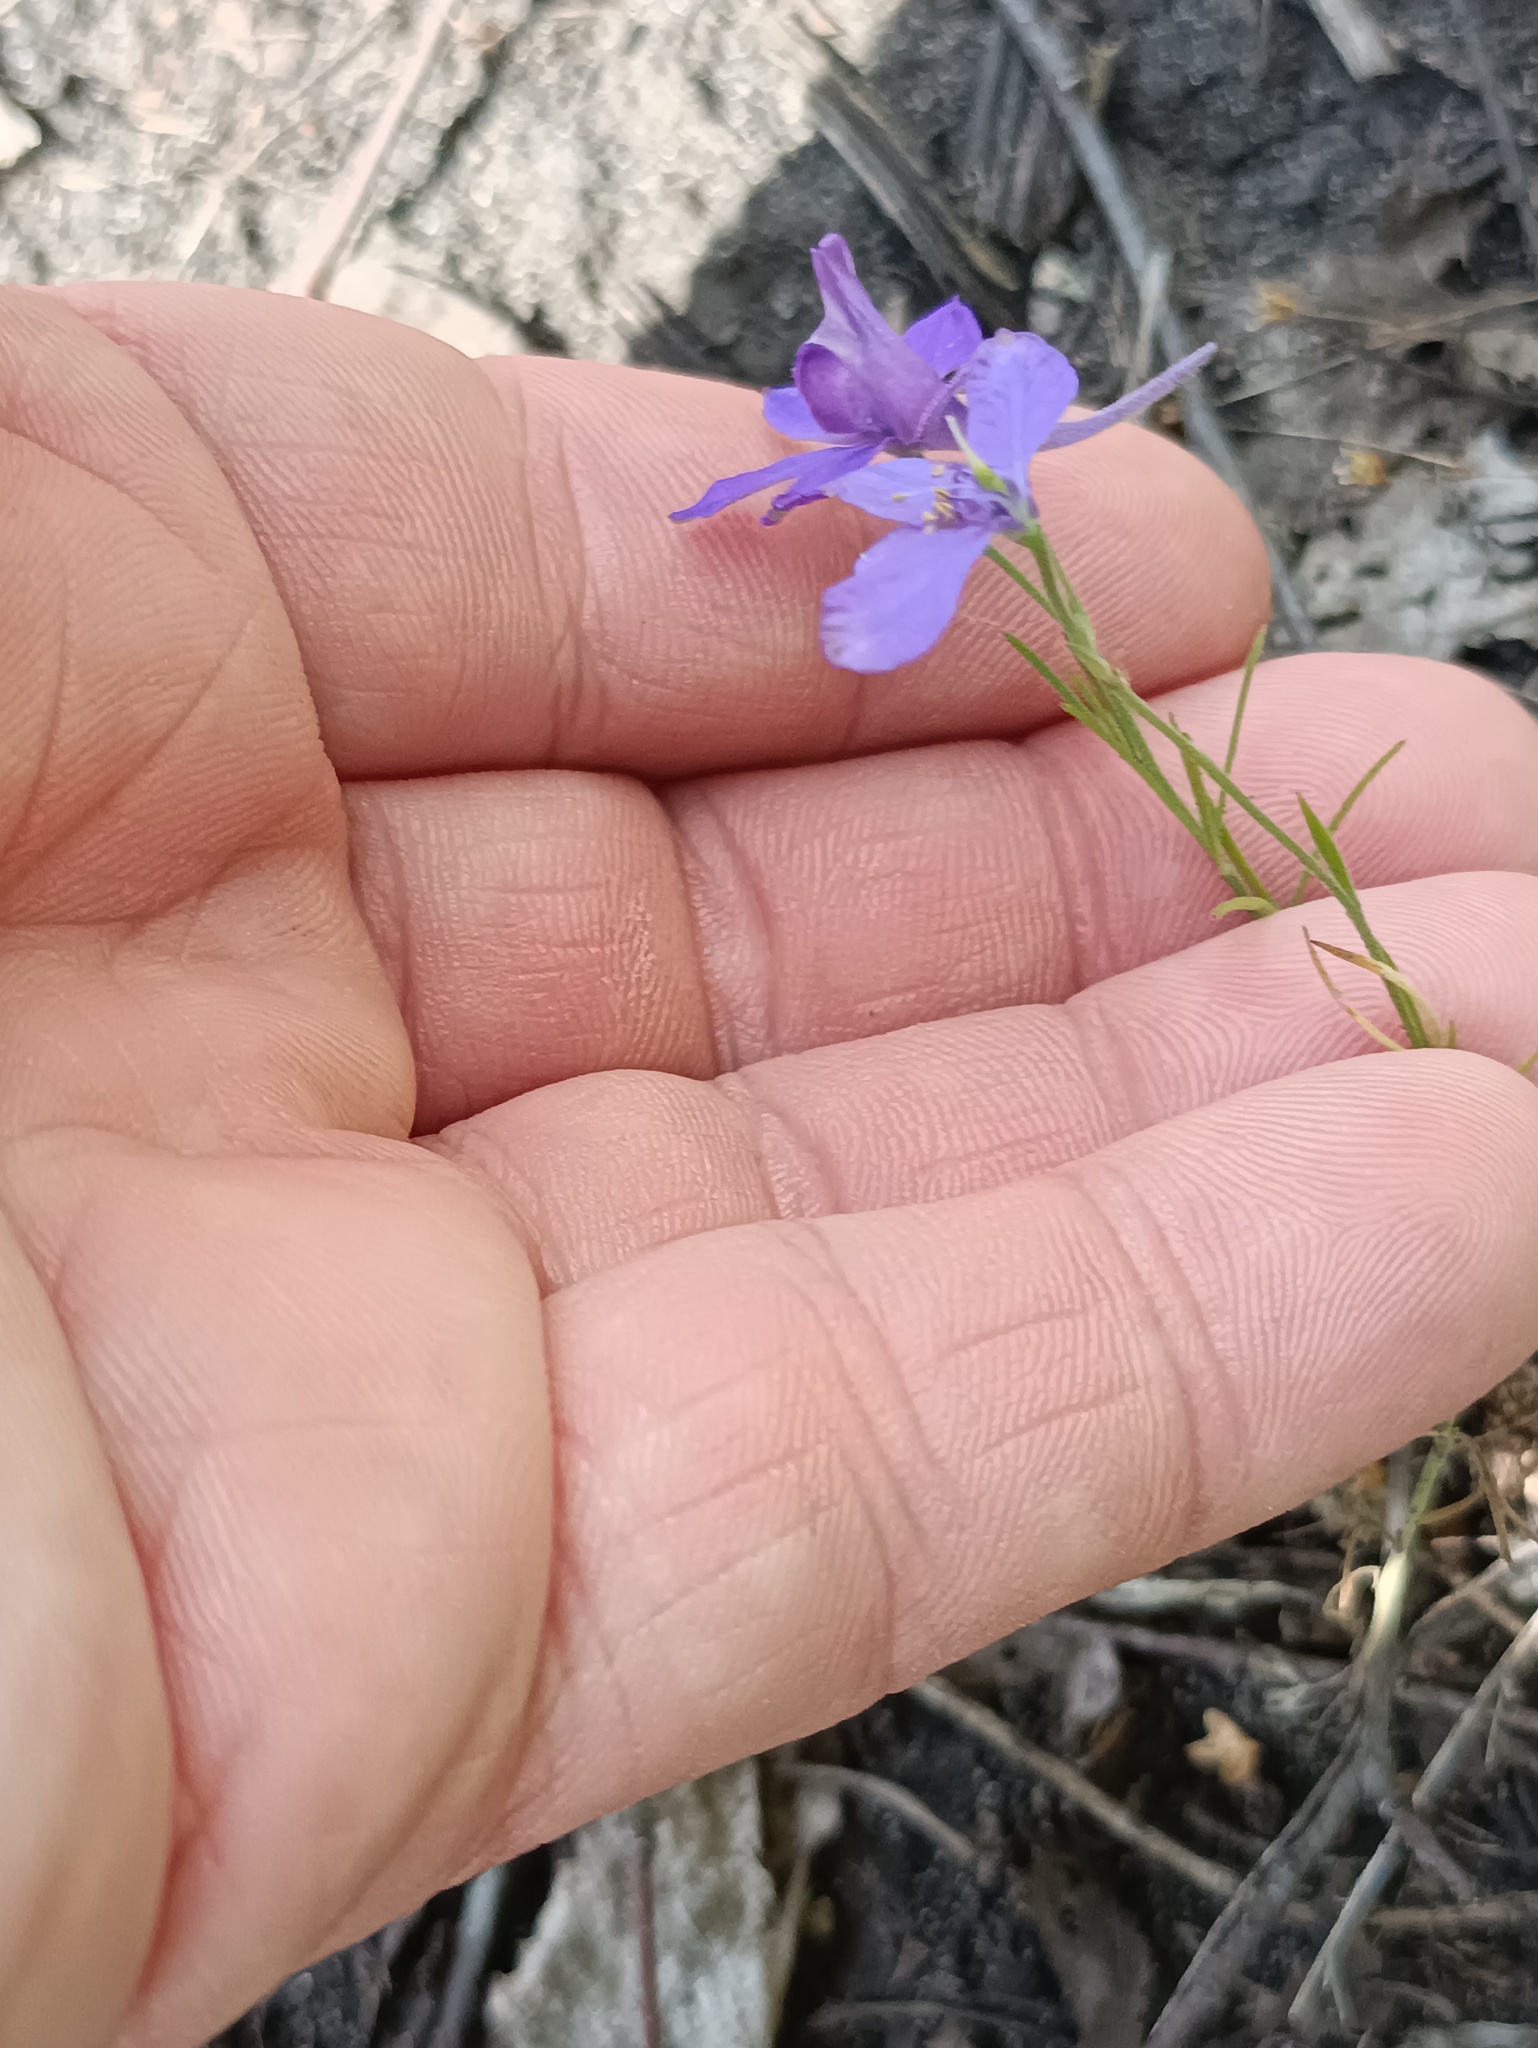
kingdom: Plantae
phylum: Tracheophyta
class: Magnoliopsida
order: Ranunculales
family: Ranunculaceae
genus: Delphinium
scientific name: Delphinium consolida
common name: Branching larkspur
